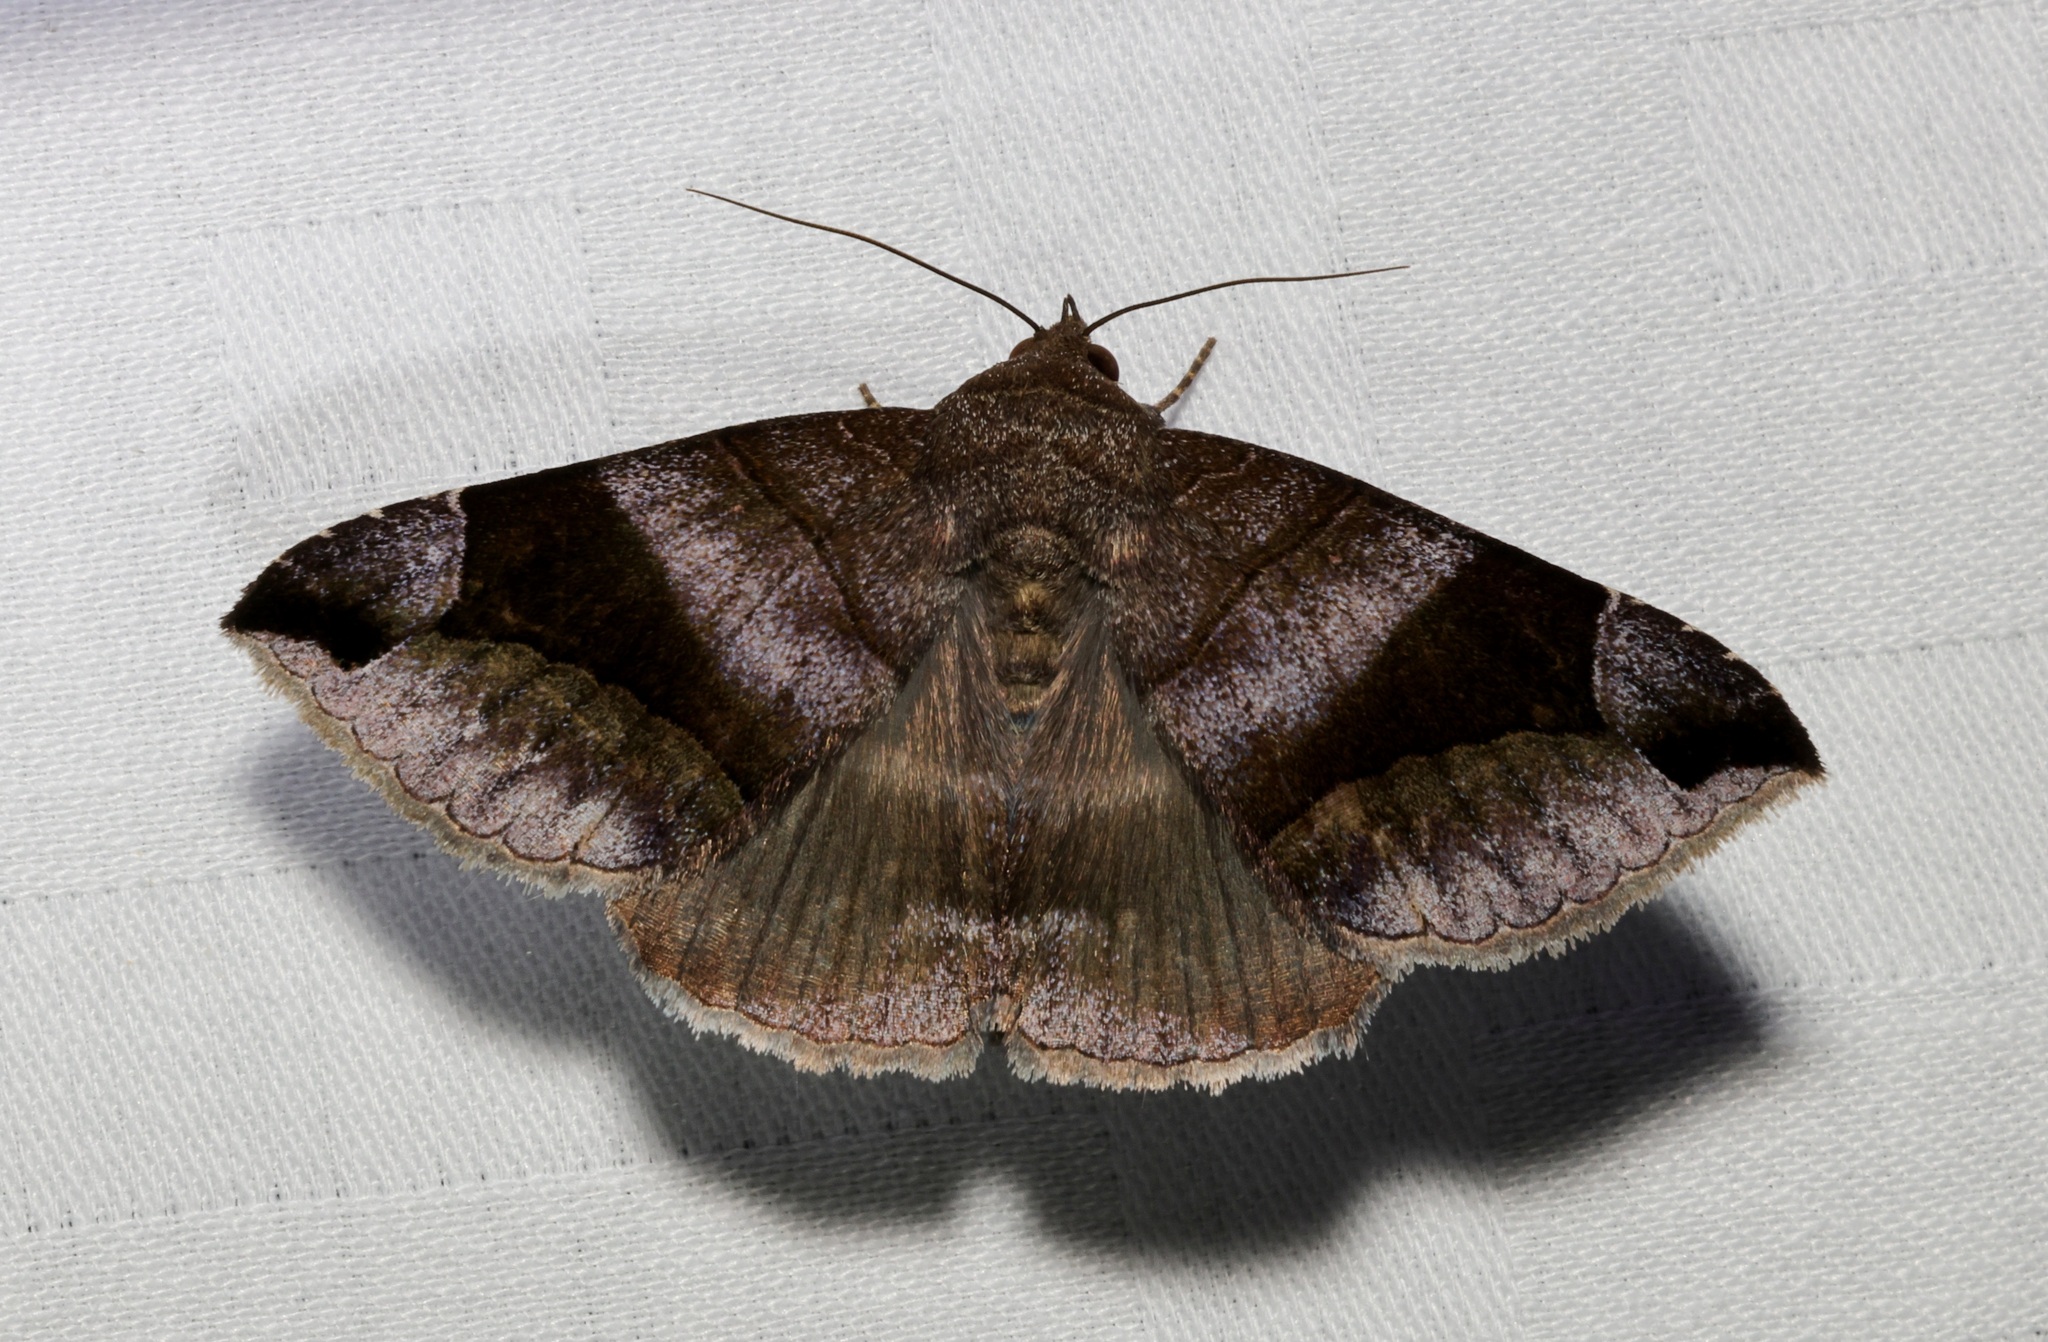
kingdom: Animalia
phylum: Arthropoda
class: Insecta
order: Lepidoptera
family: Erebidae
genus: Bastilla
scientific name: Bastilla amygdalis
